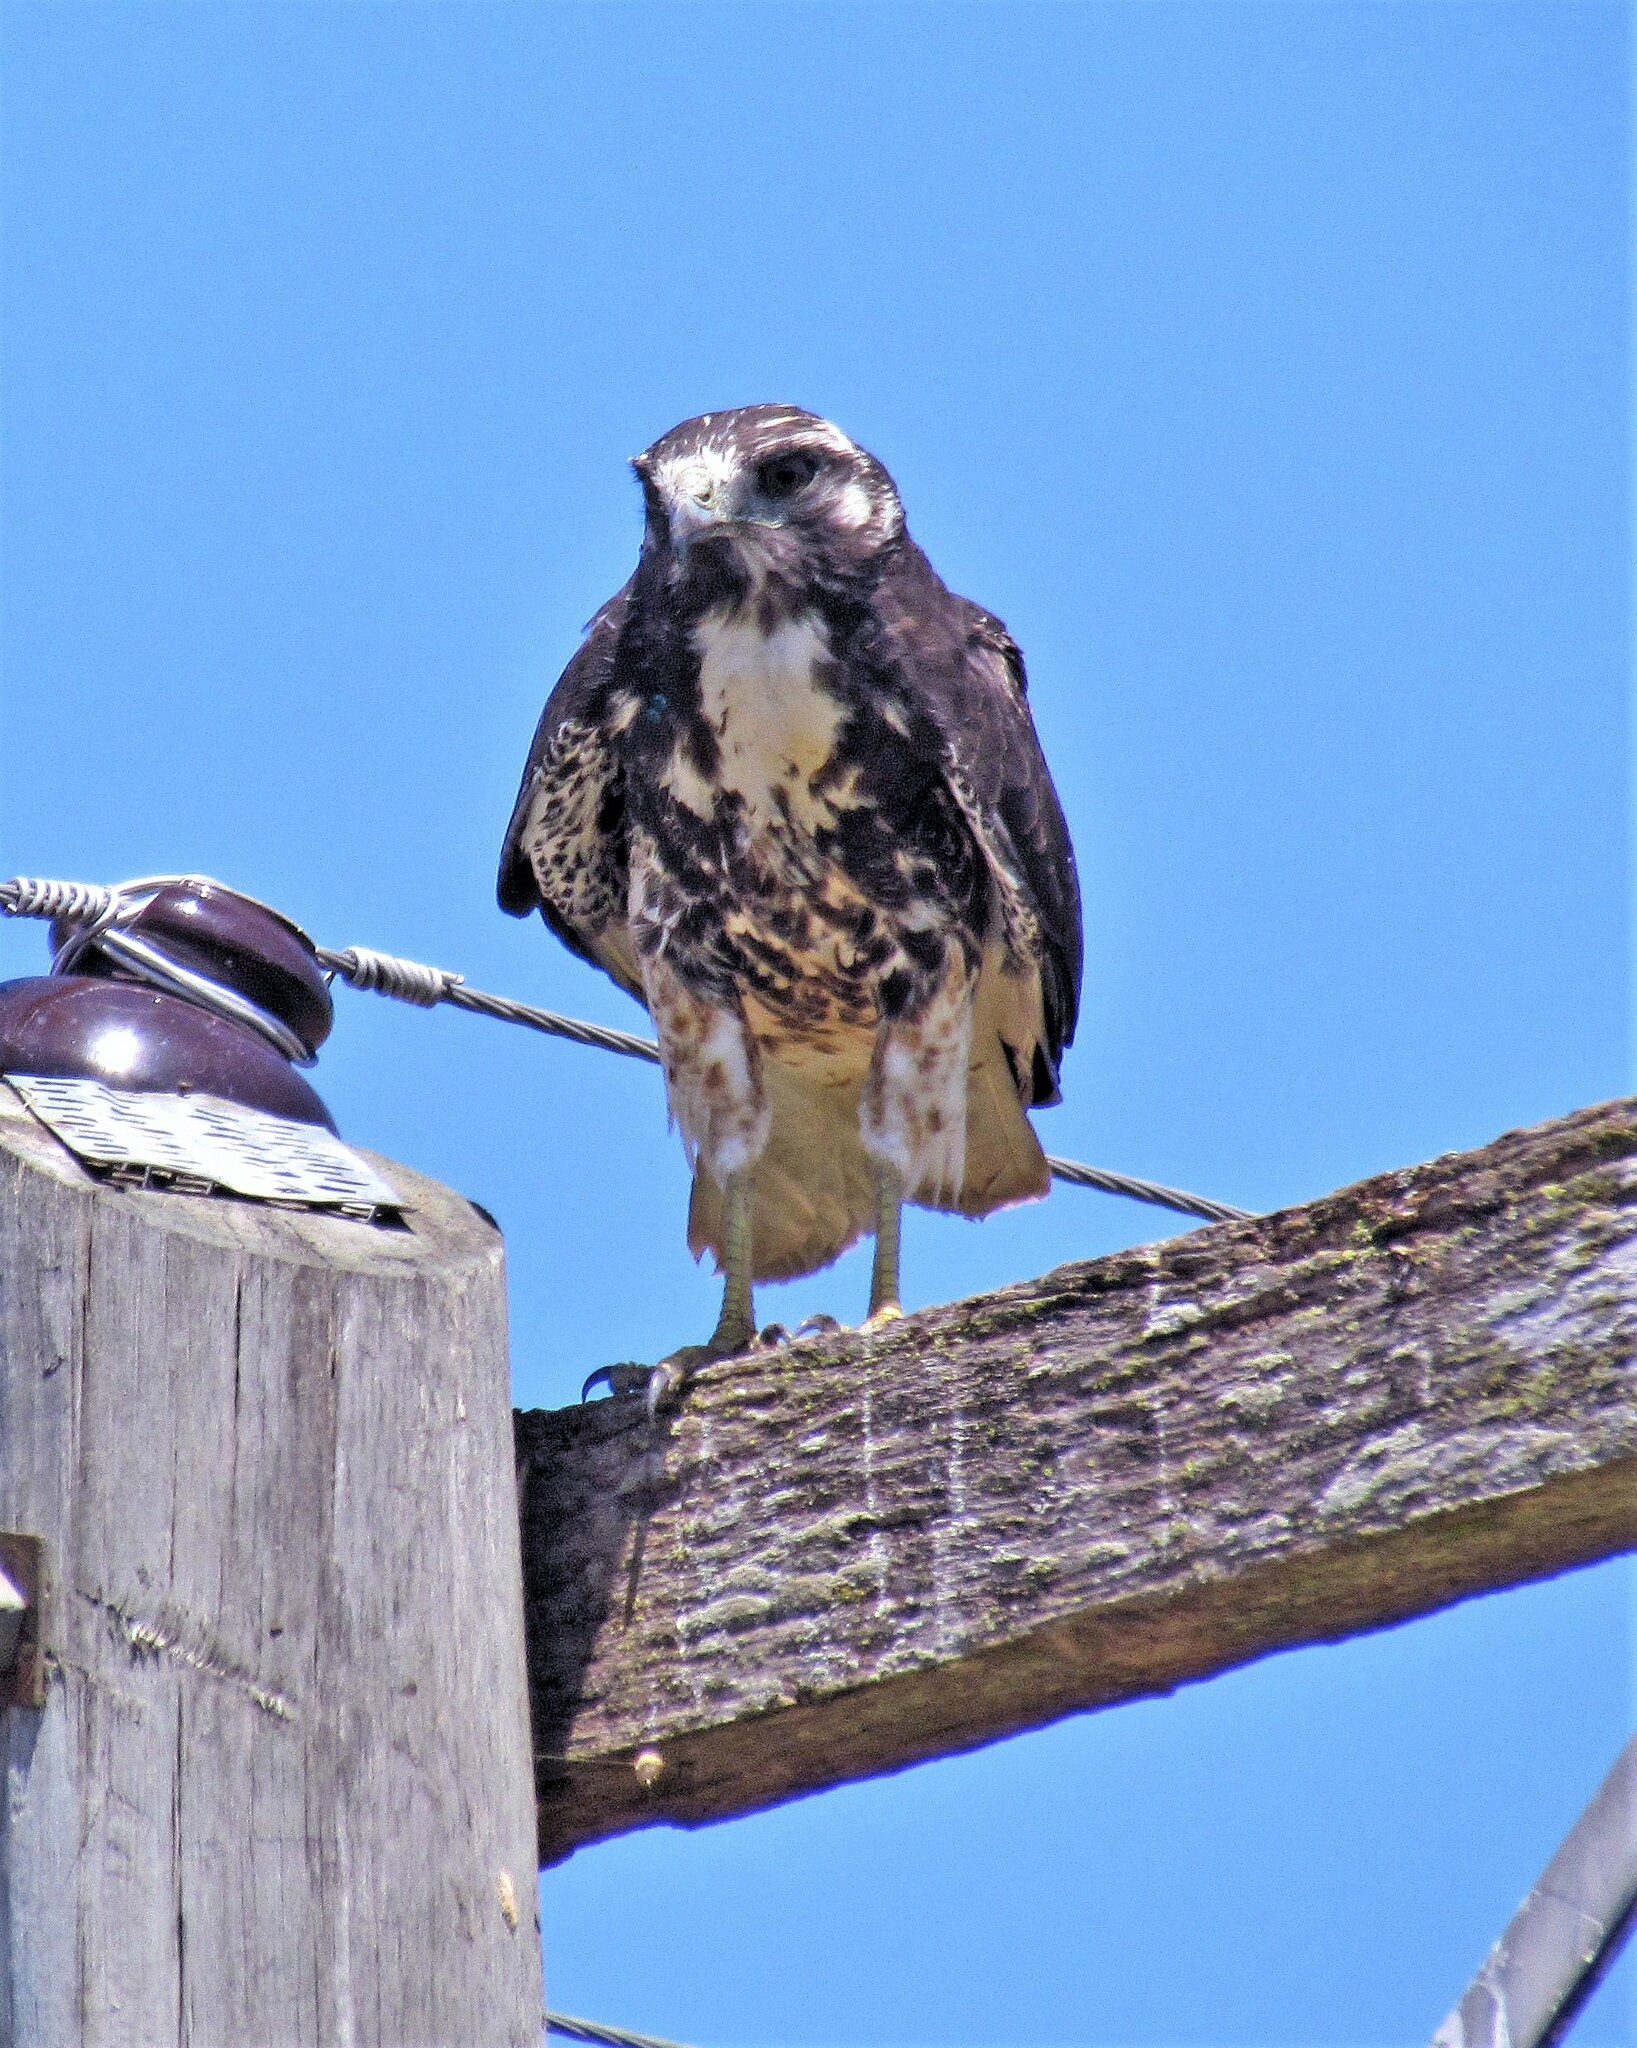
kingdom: Animalia
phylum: Chordata
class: Aves
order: Accipitriformes
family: Accipitridae
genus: Buteo
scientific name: Buteo albicaudatus
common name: White-tailed hawk
